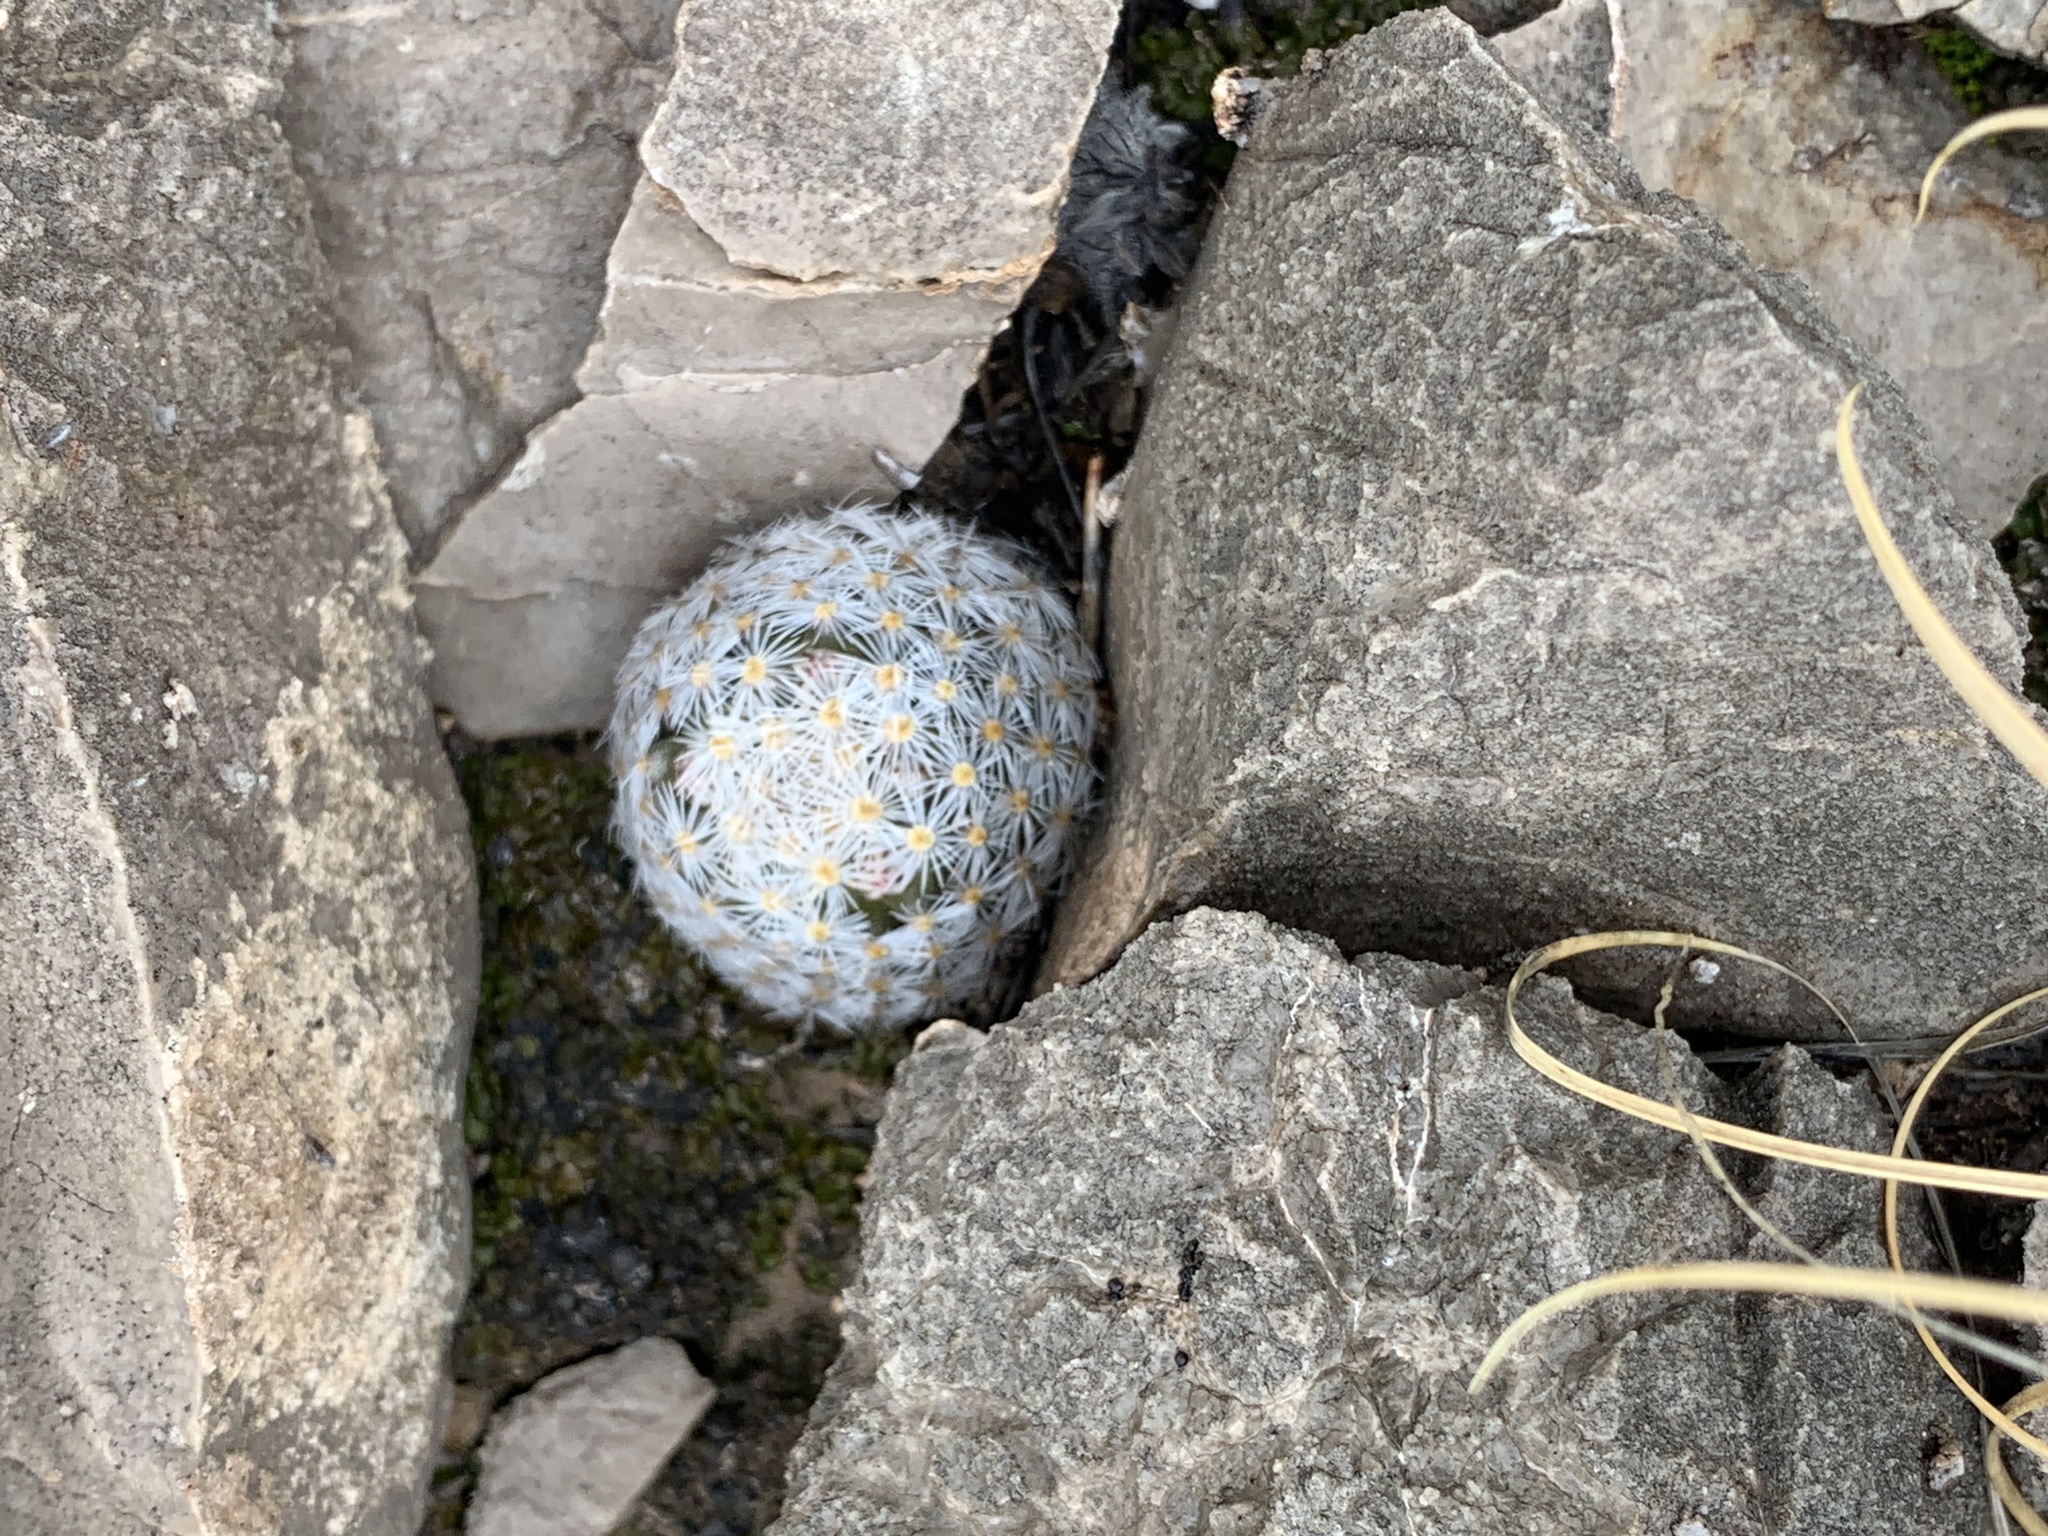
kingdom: Plantae
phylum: Tracheophyta
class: Magnoliopsida
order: Caryophyllales
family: Cactaceae
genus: Mammillaria
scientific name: Mammillaria lasiacantha
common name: Lace-spine nipple cactus
